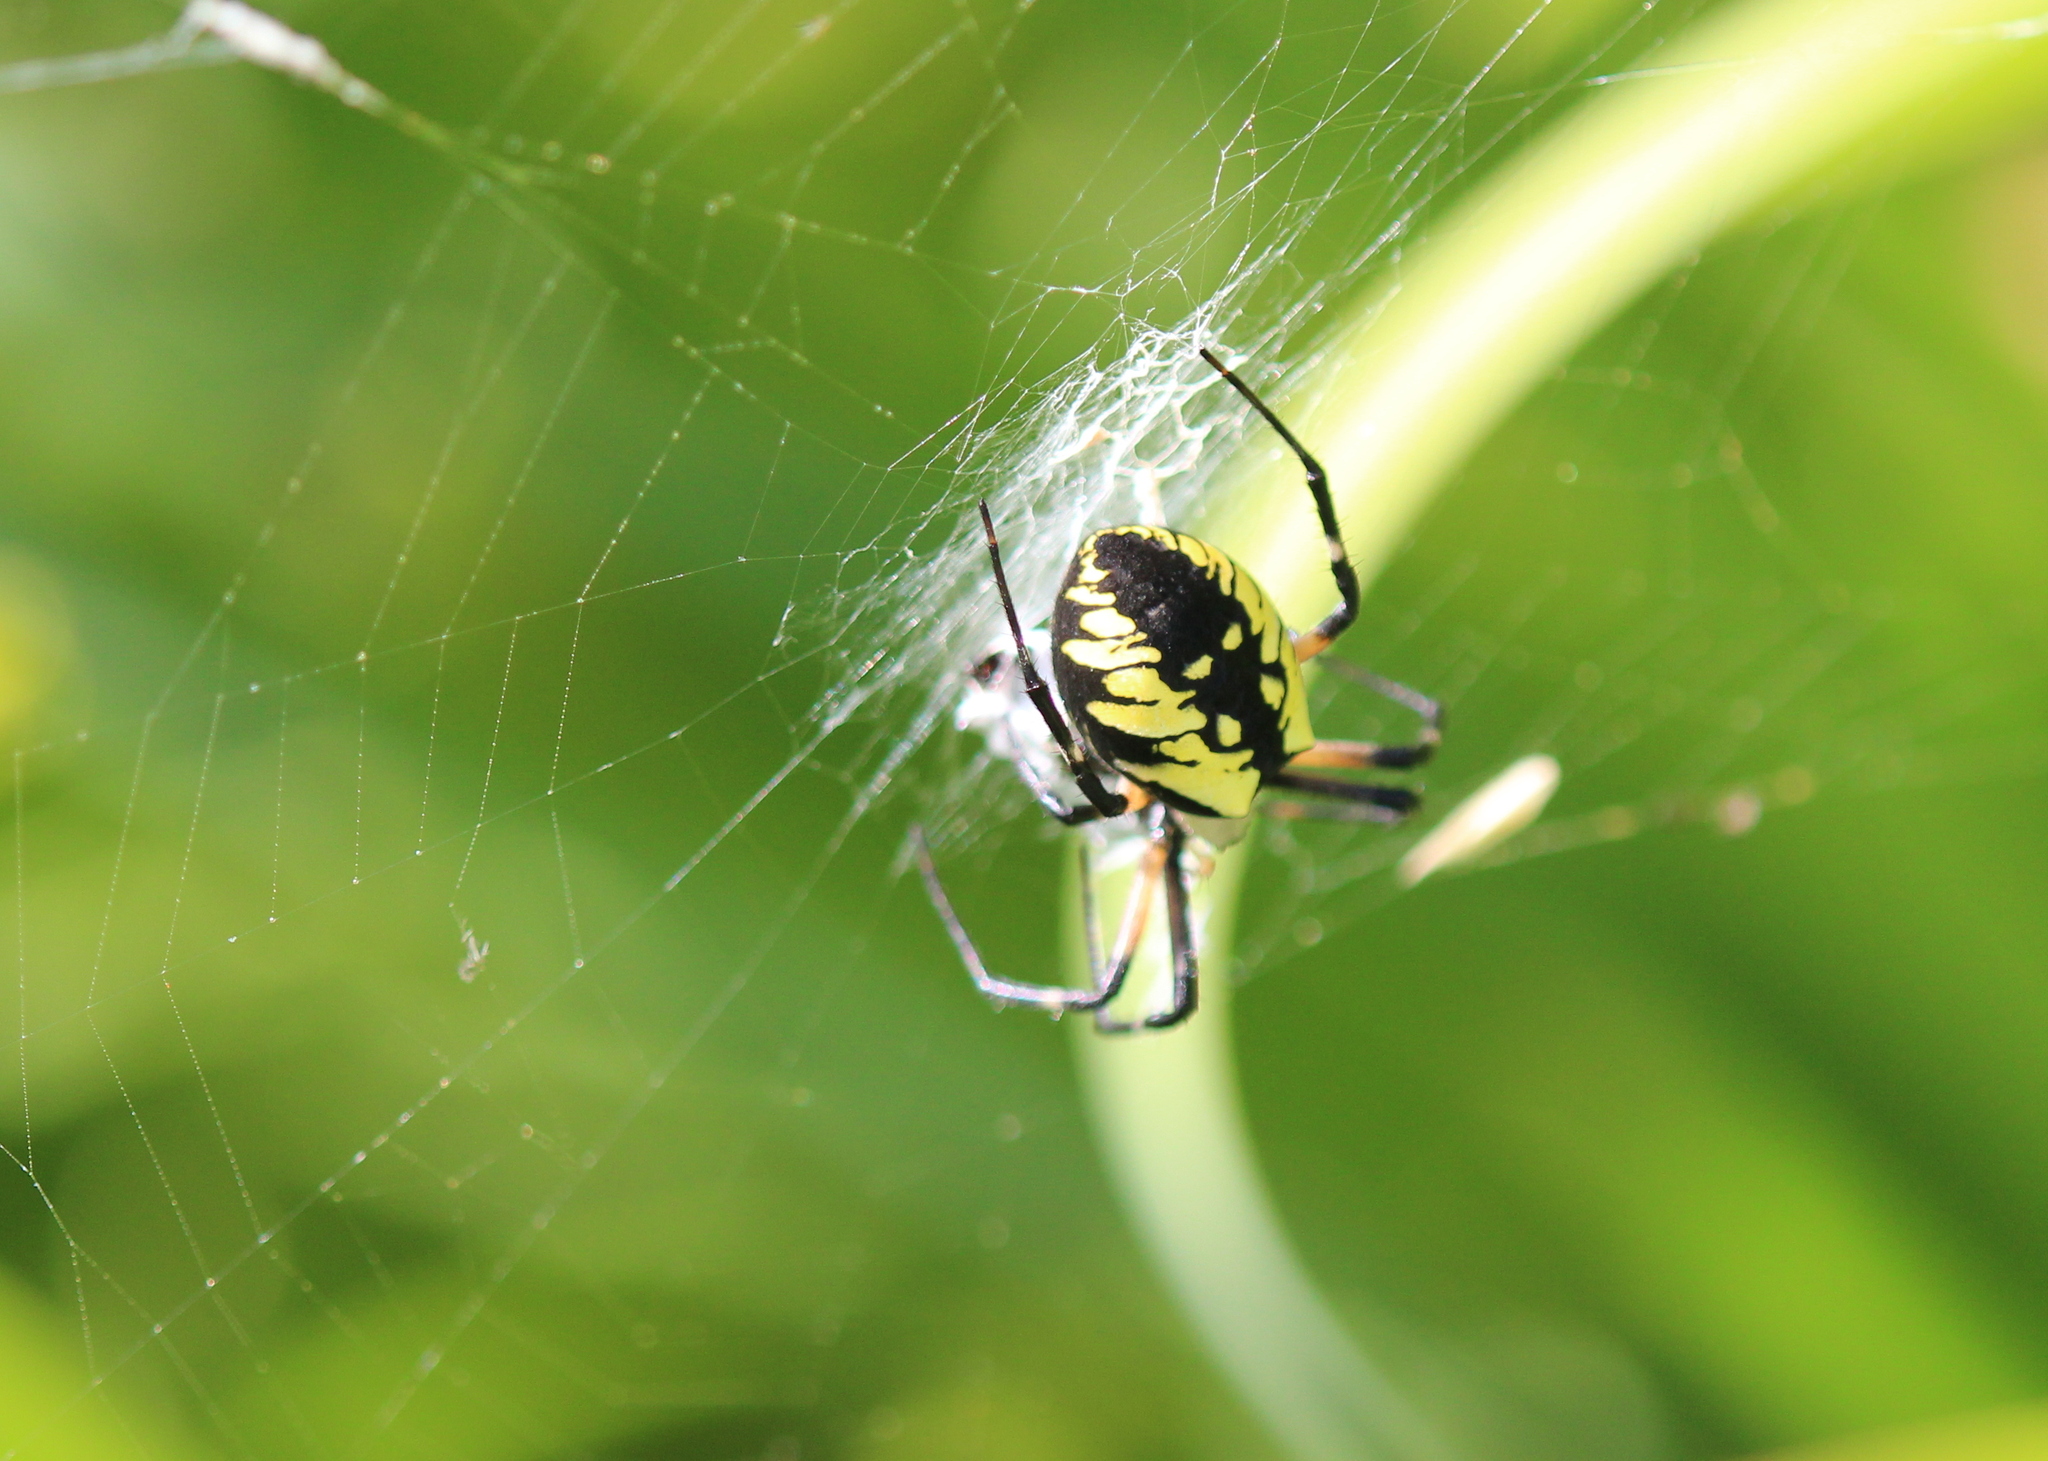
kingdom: Animalia
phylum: Arthropoda
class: Arachnida
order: Araneae
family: Araneidae
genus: Argiope
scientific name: Argiope aurantia
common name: Orb weavers
